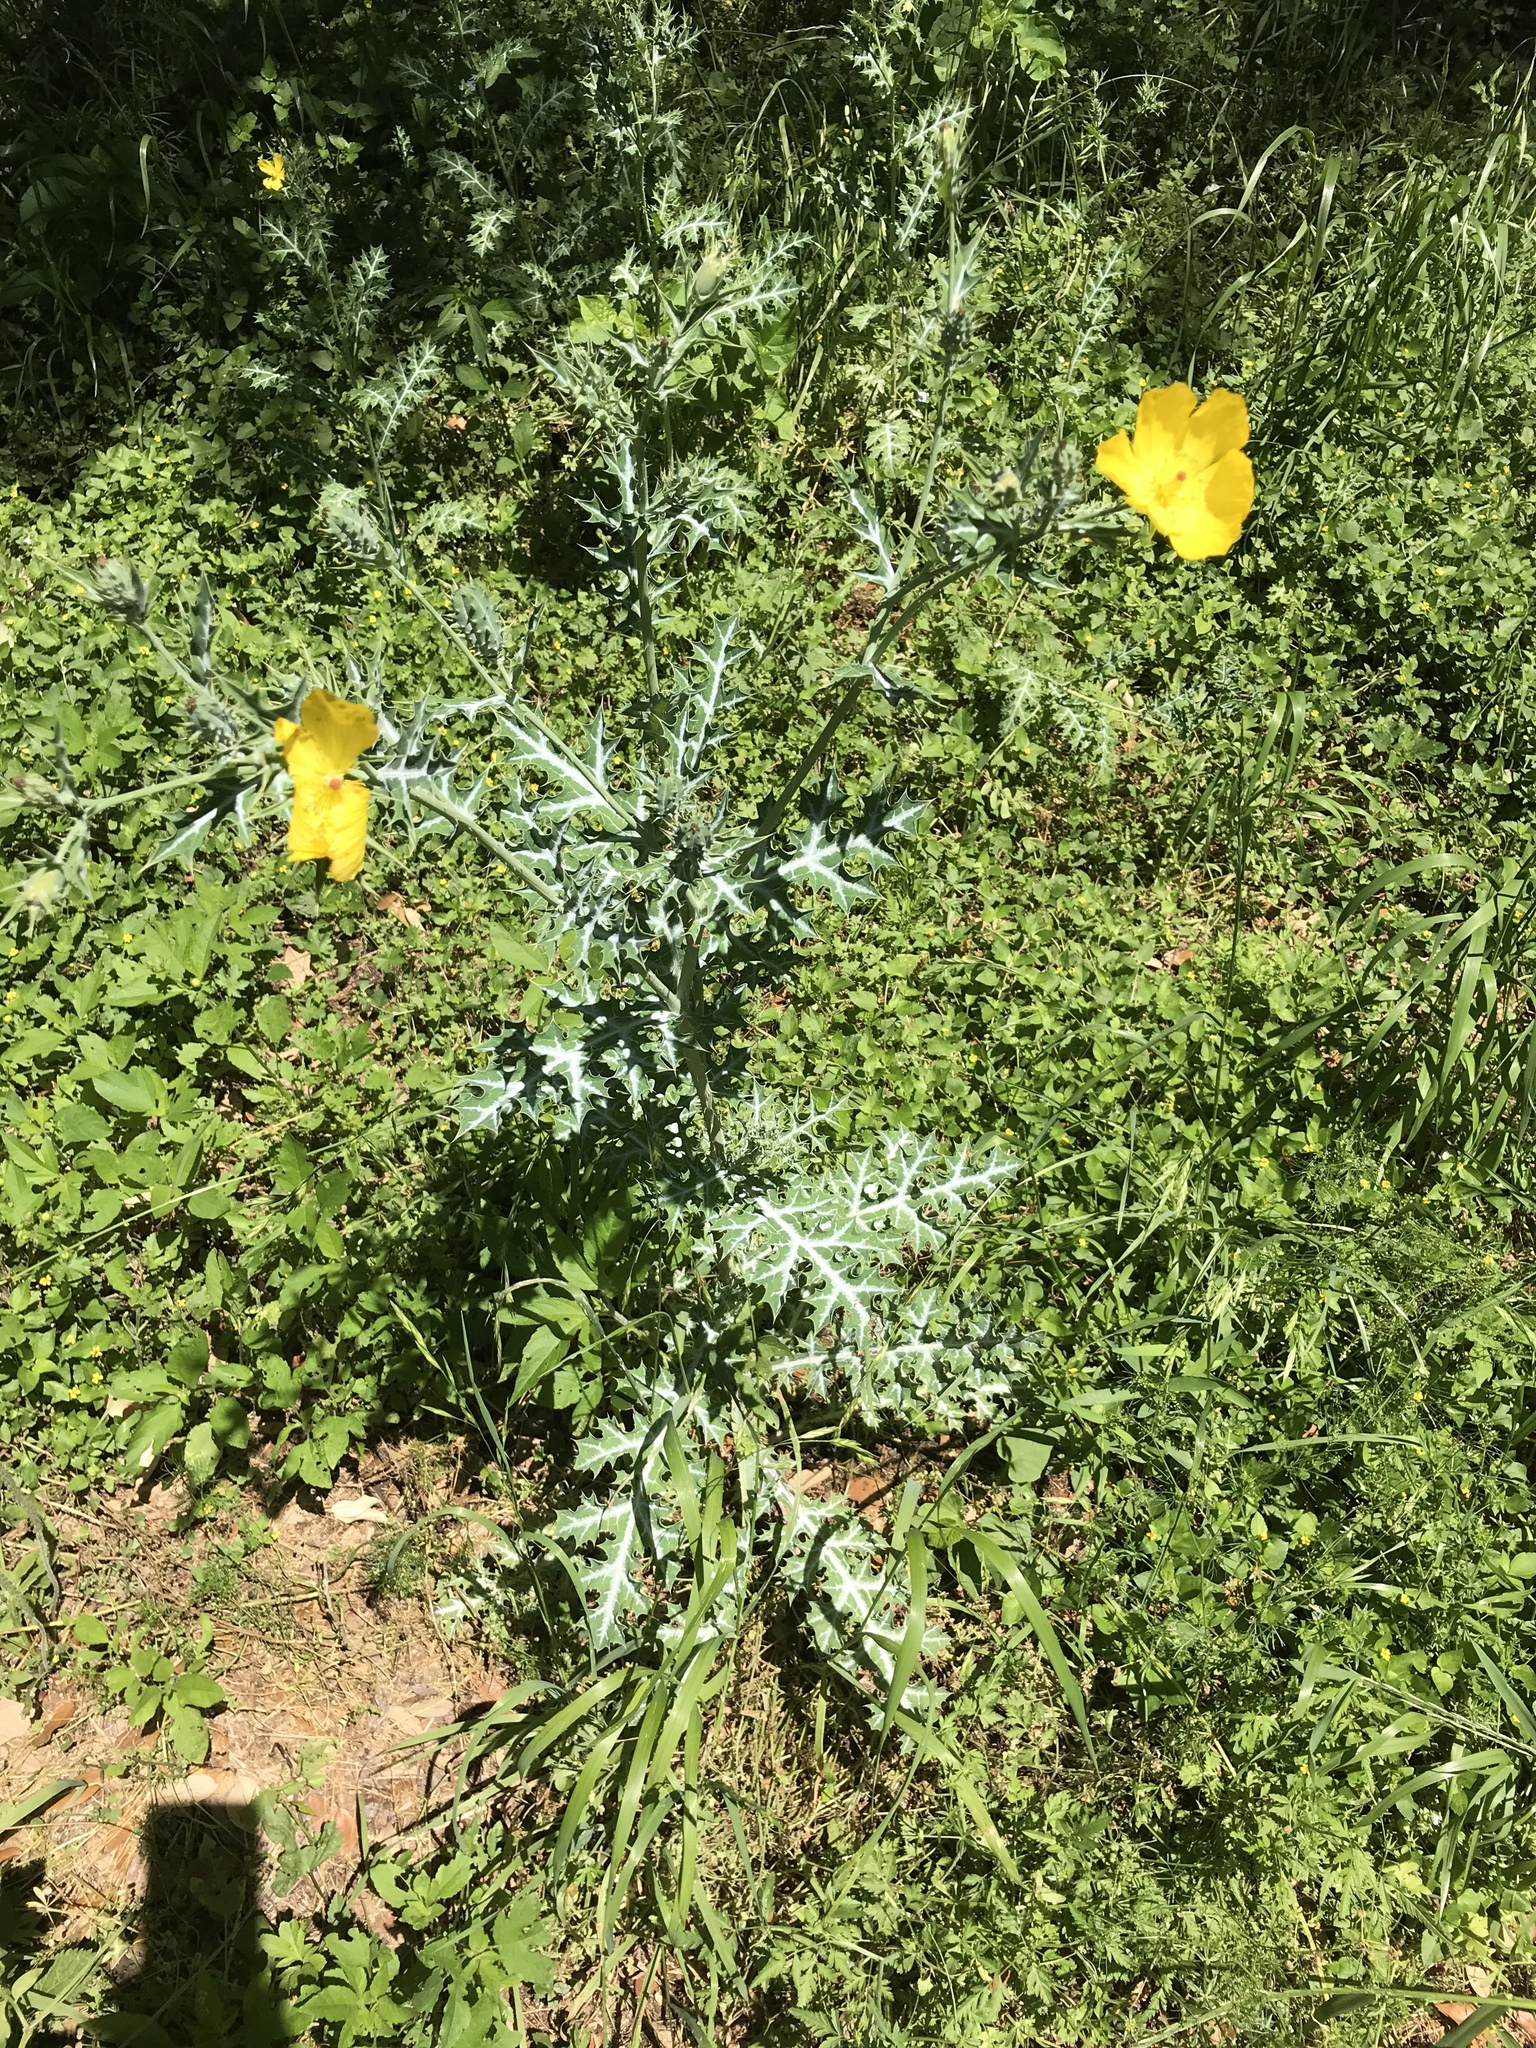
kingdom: Plantae
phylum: Tracheophyta
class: Magnoliopsida
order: Ranunculales
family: Papaveraceae
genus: Argemone
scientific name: Argemone mexicana
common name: Mexican poppy
